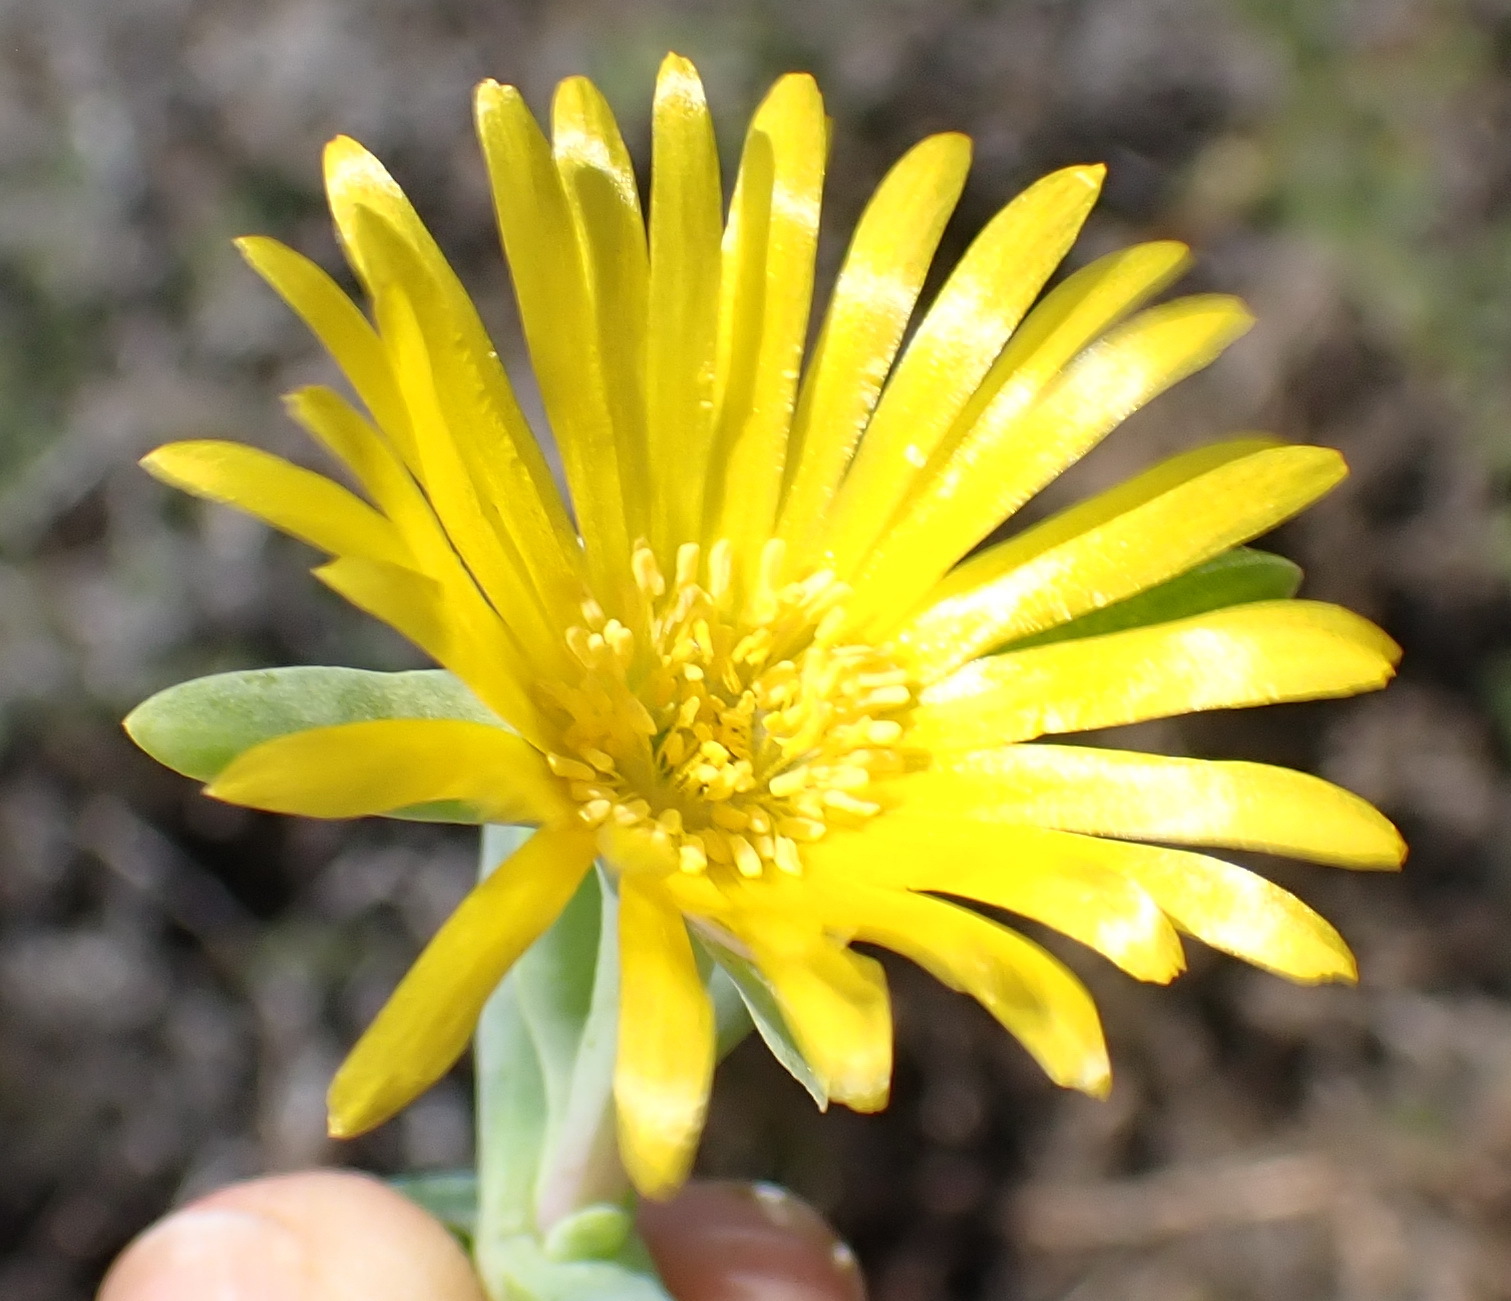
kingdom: Plantae
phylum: Tracheophyta
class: Magnoliopsida
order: Caryophyllales
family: Aizoaceae
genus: Malephora
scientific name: Malephora lutea
